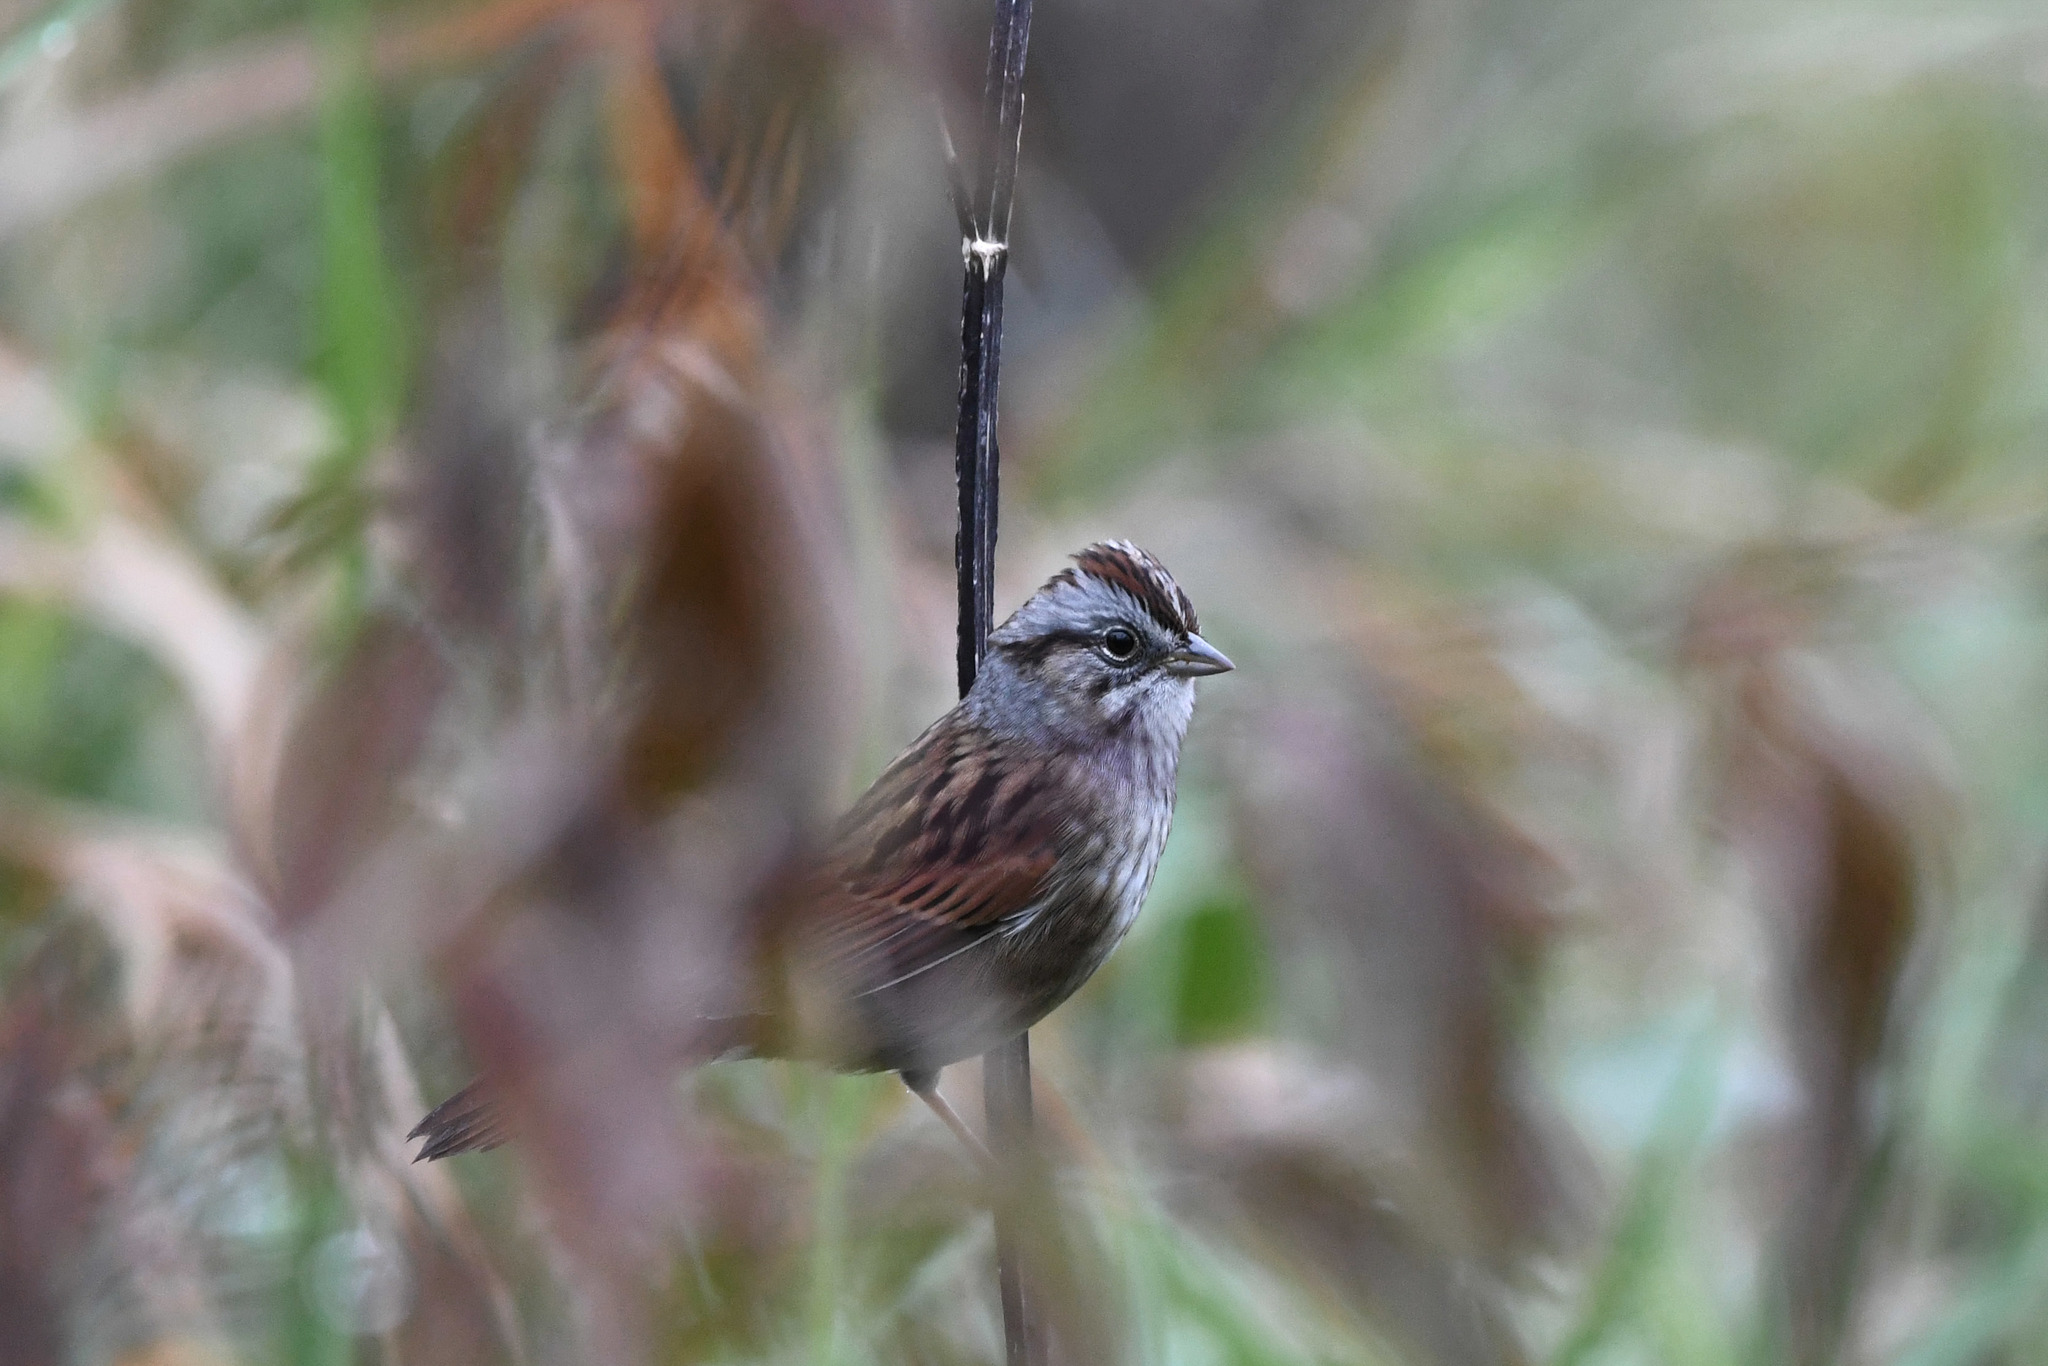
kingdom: Animalia
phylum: Chordata
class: Aves
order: Passeriformes
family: Passerellidae
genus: Melospiza
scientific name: Melospiza georgiana
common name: Swamp sparrow
